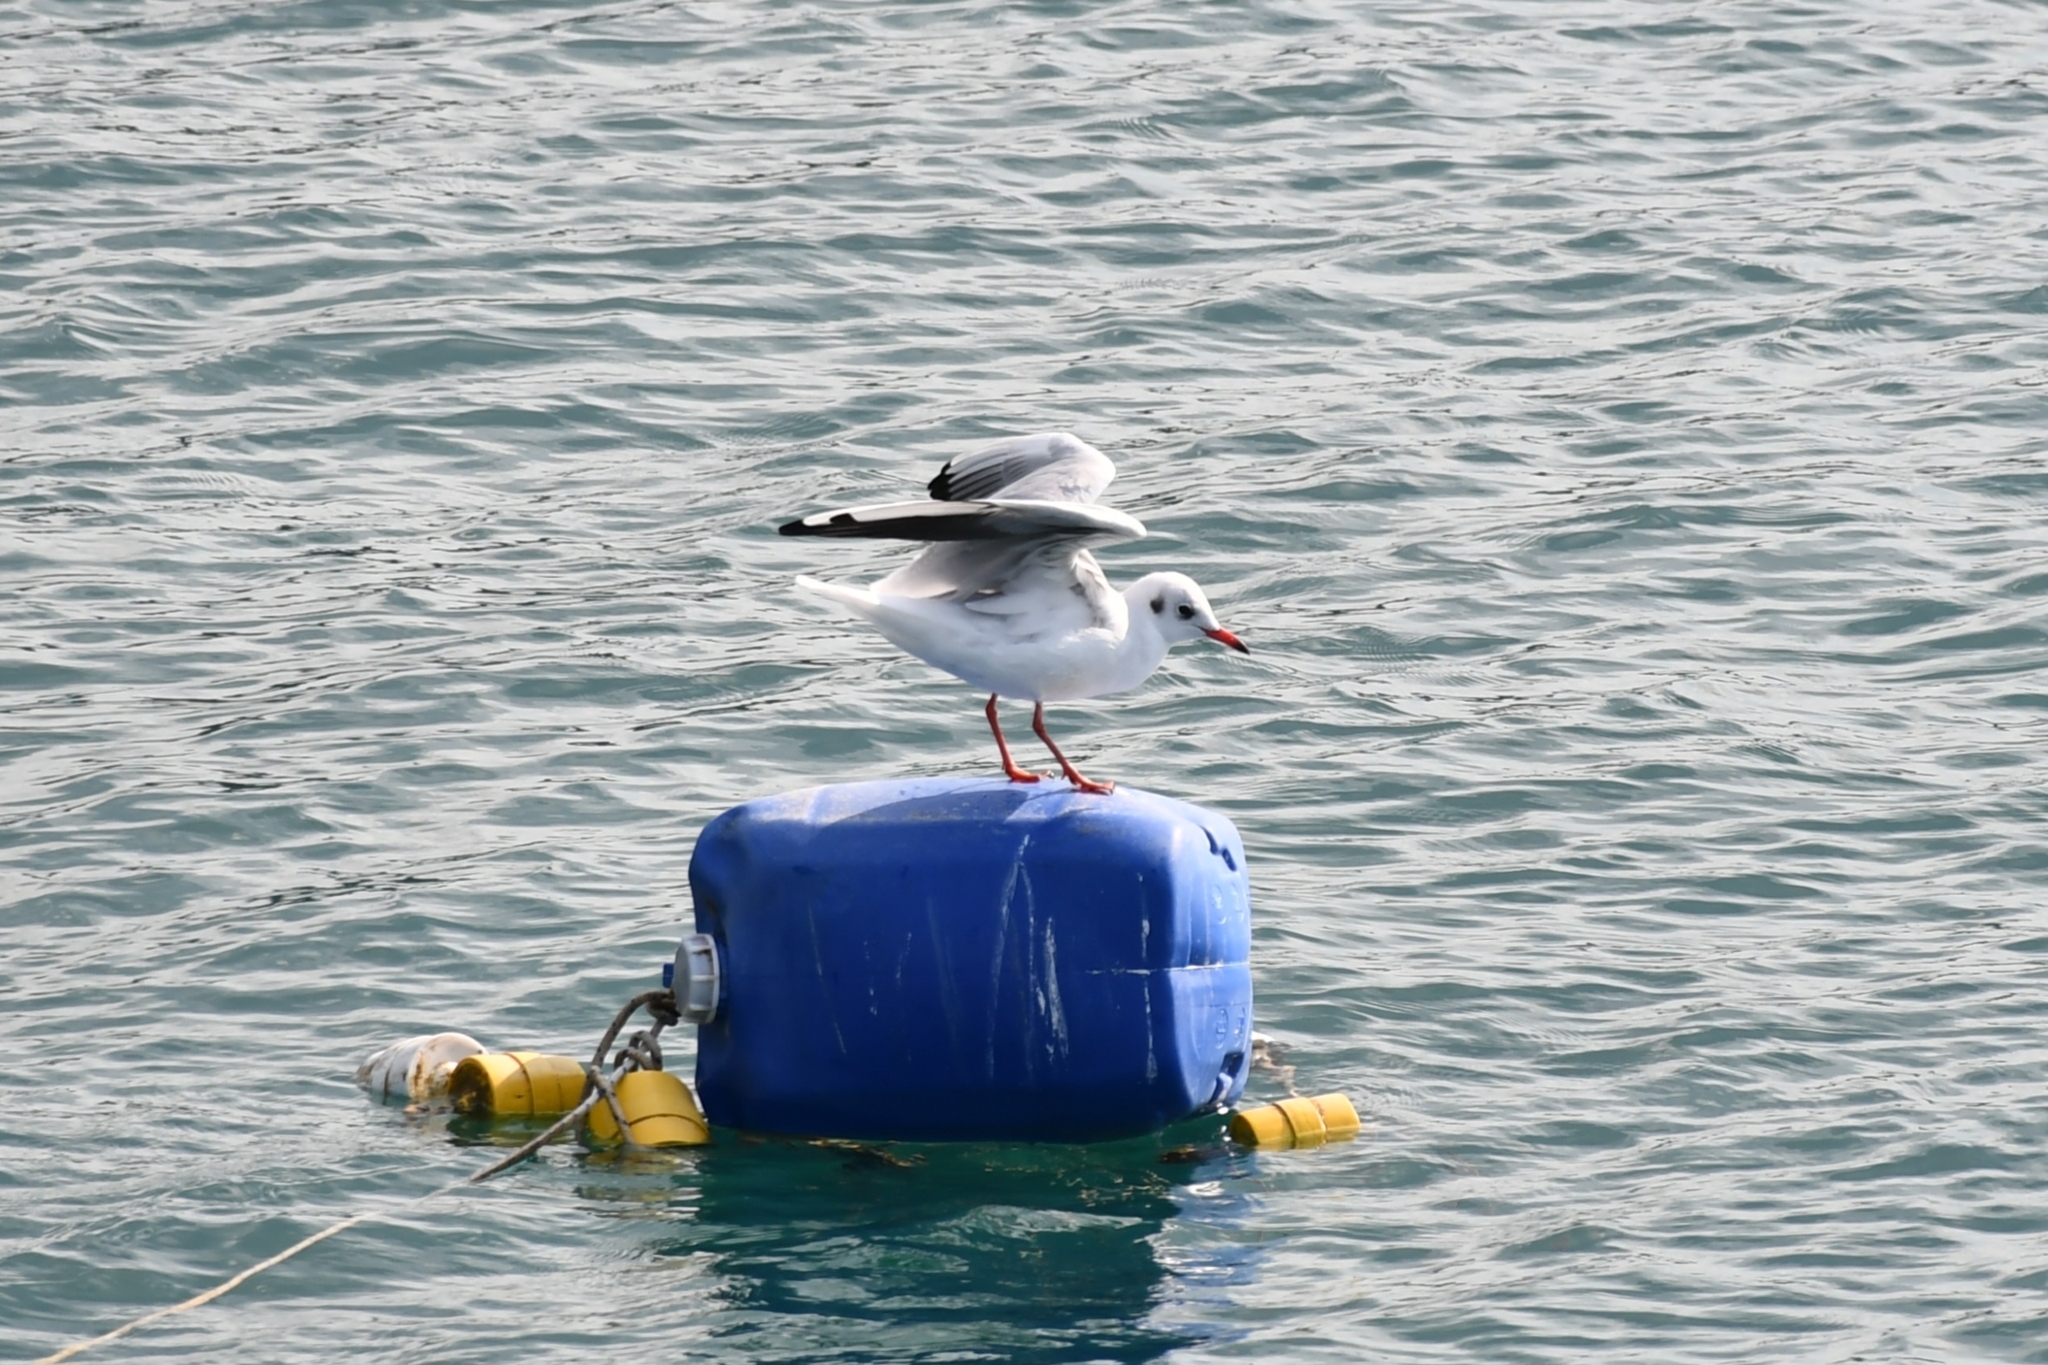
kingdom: Animalia
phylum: Chordata
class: Aves
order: Charadriiformes
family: Laridae
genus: Chroicocephalus
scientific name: Chroicocephalus ridibundus
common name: Black-headed gull
